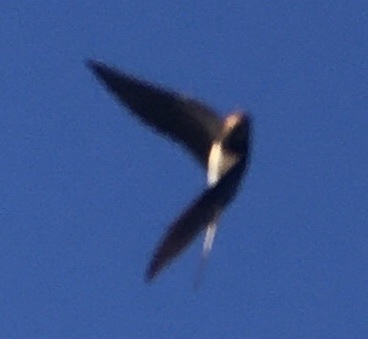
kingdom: Animalia
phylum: Chordata
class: Aves
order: Passeriformes
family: Hirundinidae
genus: Hirundo
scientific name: Hirundo rustica
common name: Barn swallow
